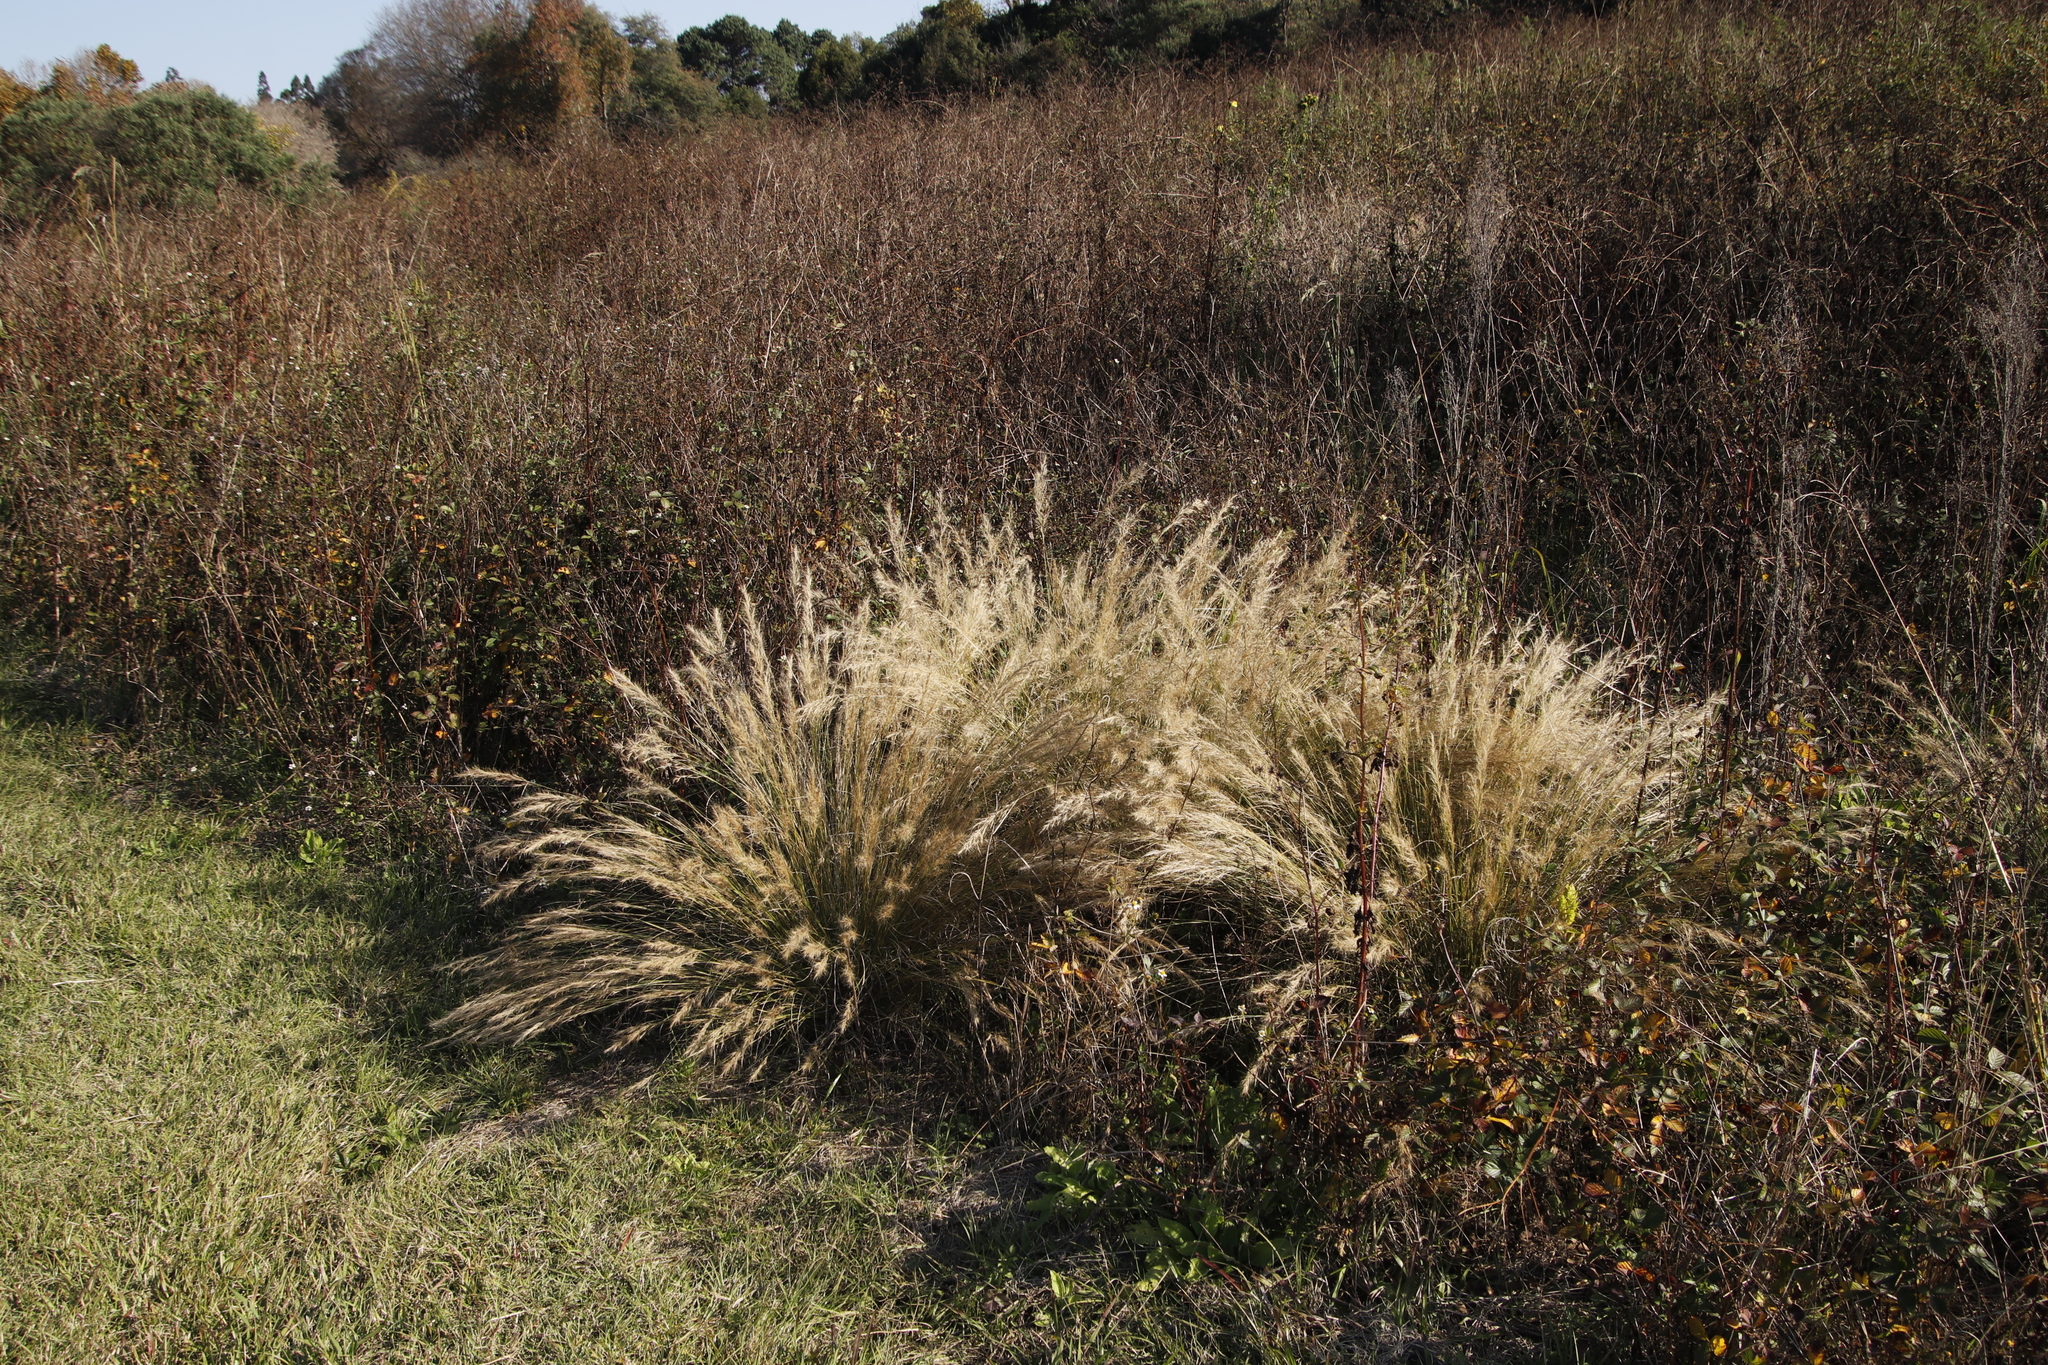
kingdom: Plantae
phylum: Tracheophyta
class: Liliopsida
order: Poales
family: Poaceae
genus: Aristida
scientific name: Aristida junciformis
